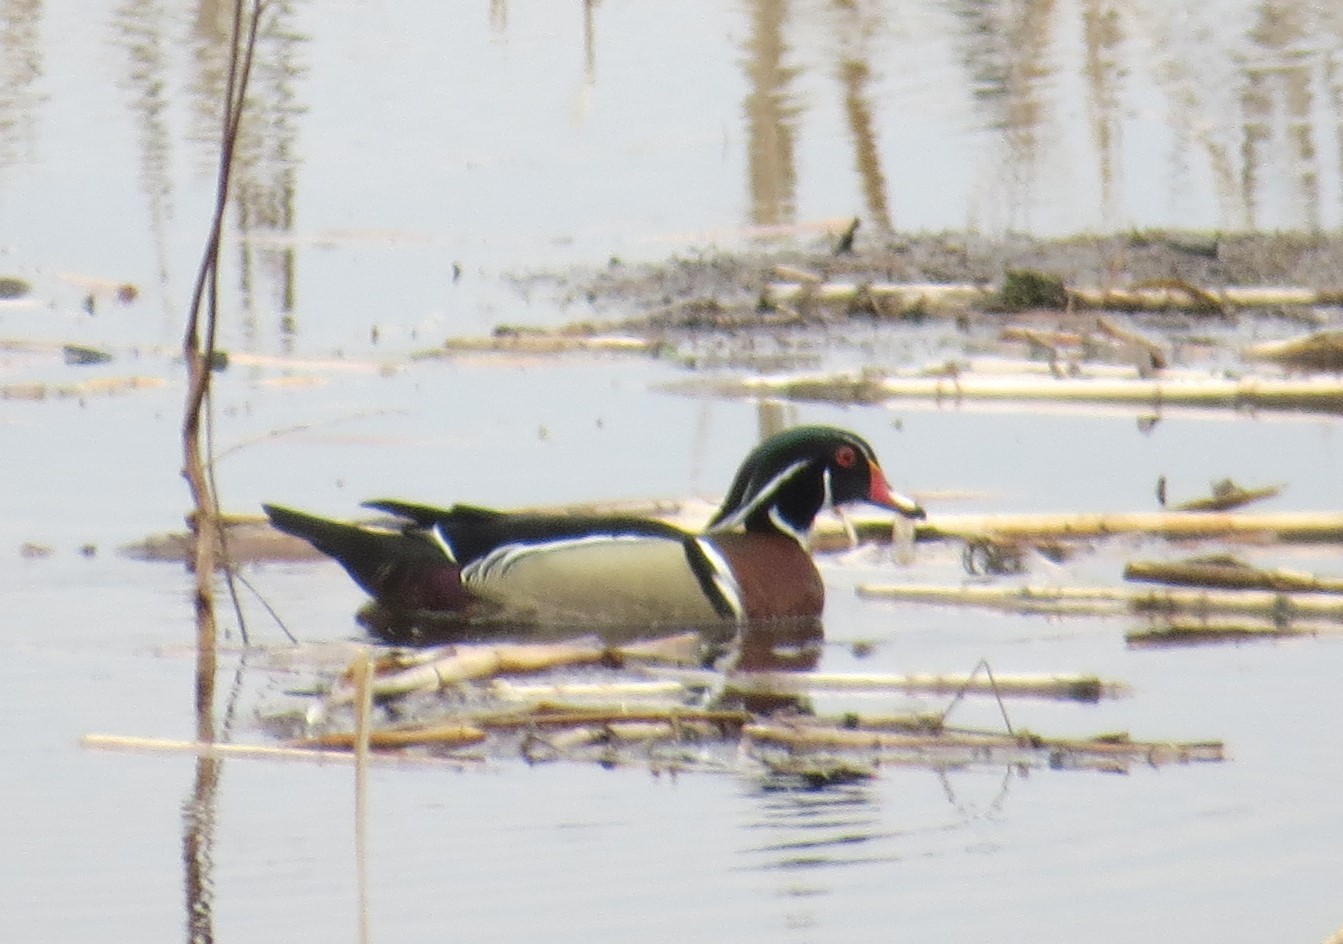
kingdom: Animalia
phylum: Chordata
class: Aves
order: Anseriformes
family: Anatidae
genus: Aix
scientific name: Aix sponsa
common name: Wood duck
